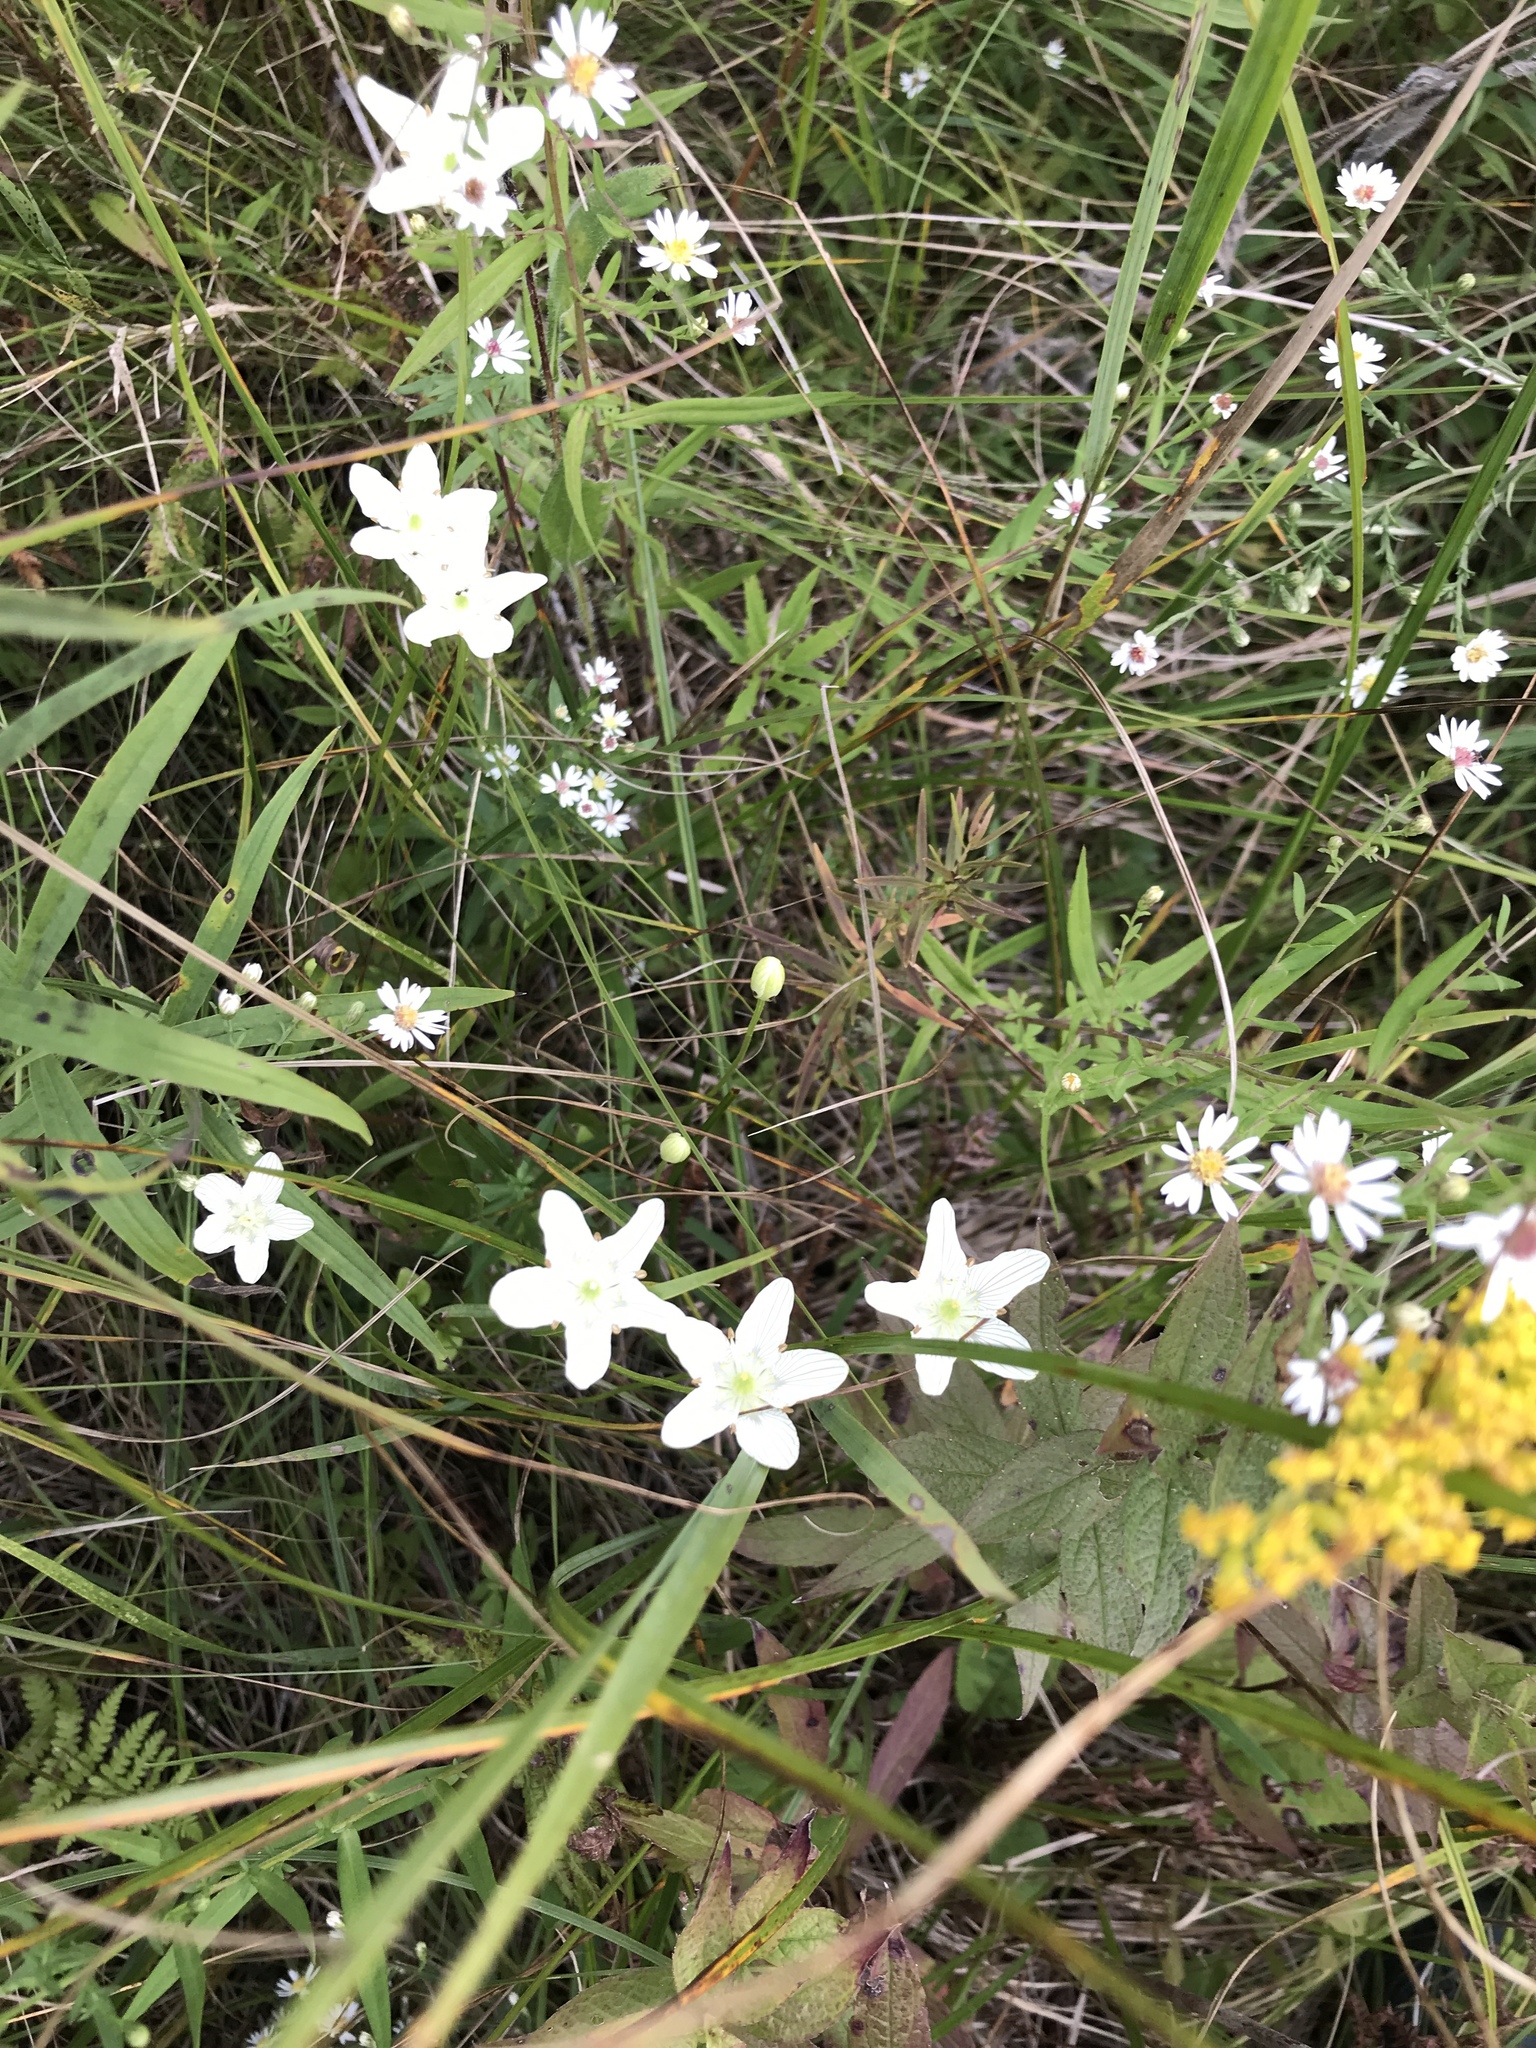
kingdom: Plantae
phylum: Tracheophyta
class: Magnoliopsida
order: Celastrales
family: Parnassiaceae
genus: Parnassia
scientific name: Parnassia glauca
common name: American grass-of-parnassus
